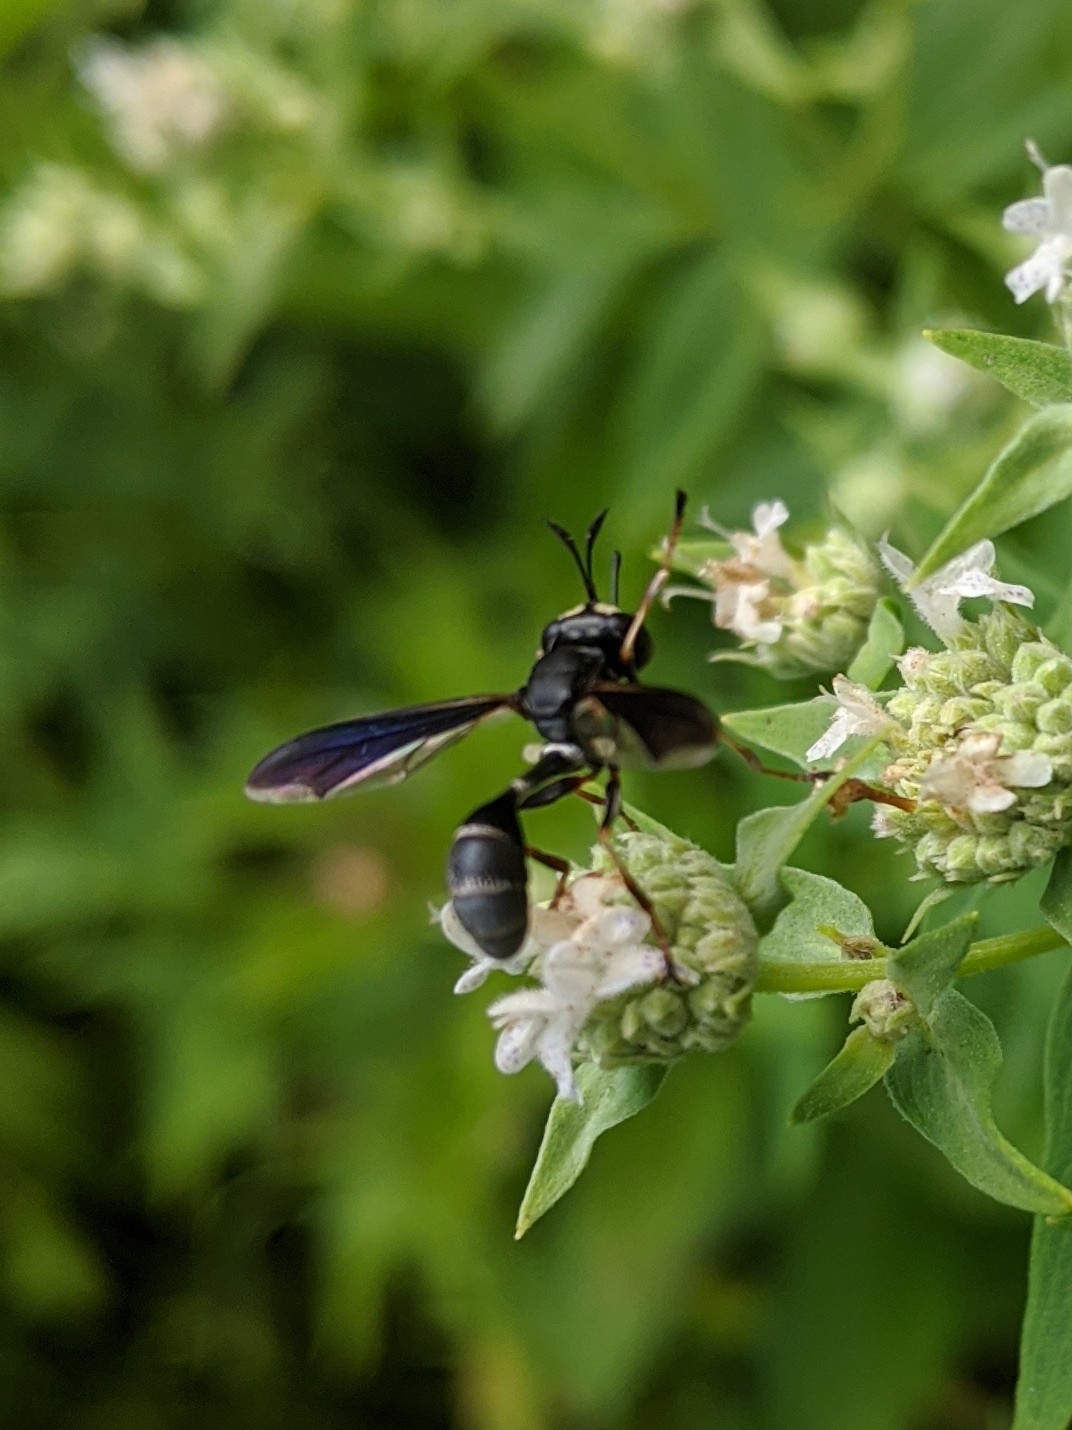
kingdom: Animalia
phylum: Arthropoda
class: Insecta
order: Diptera
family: Conopidae
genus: Physocephala
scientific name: Physocephala tibialis
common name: Common eastern physocephala
